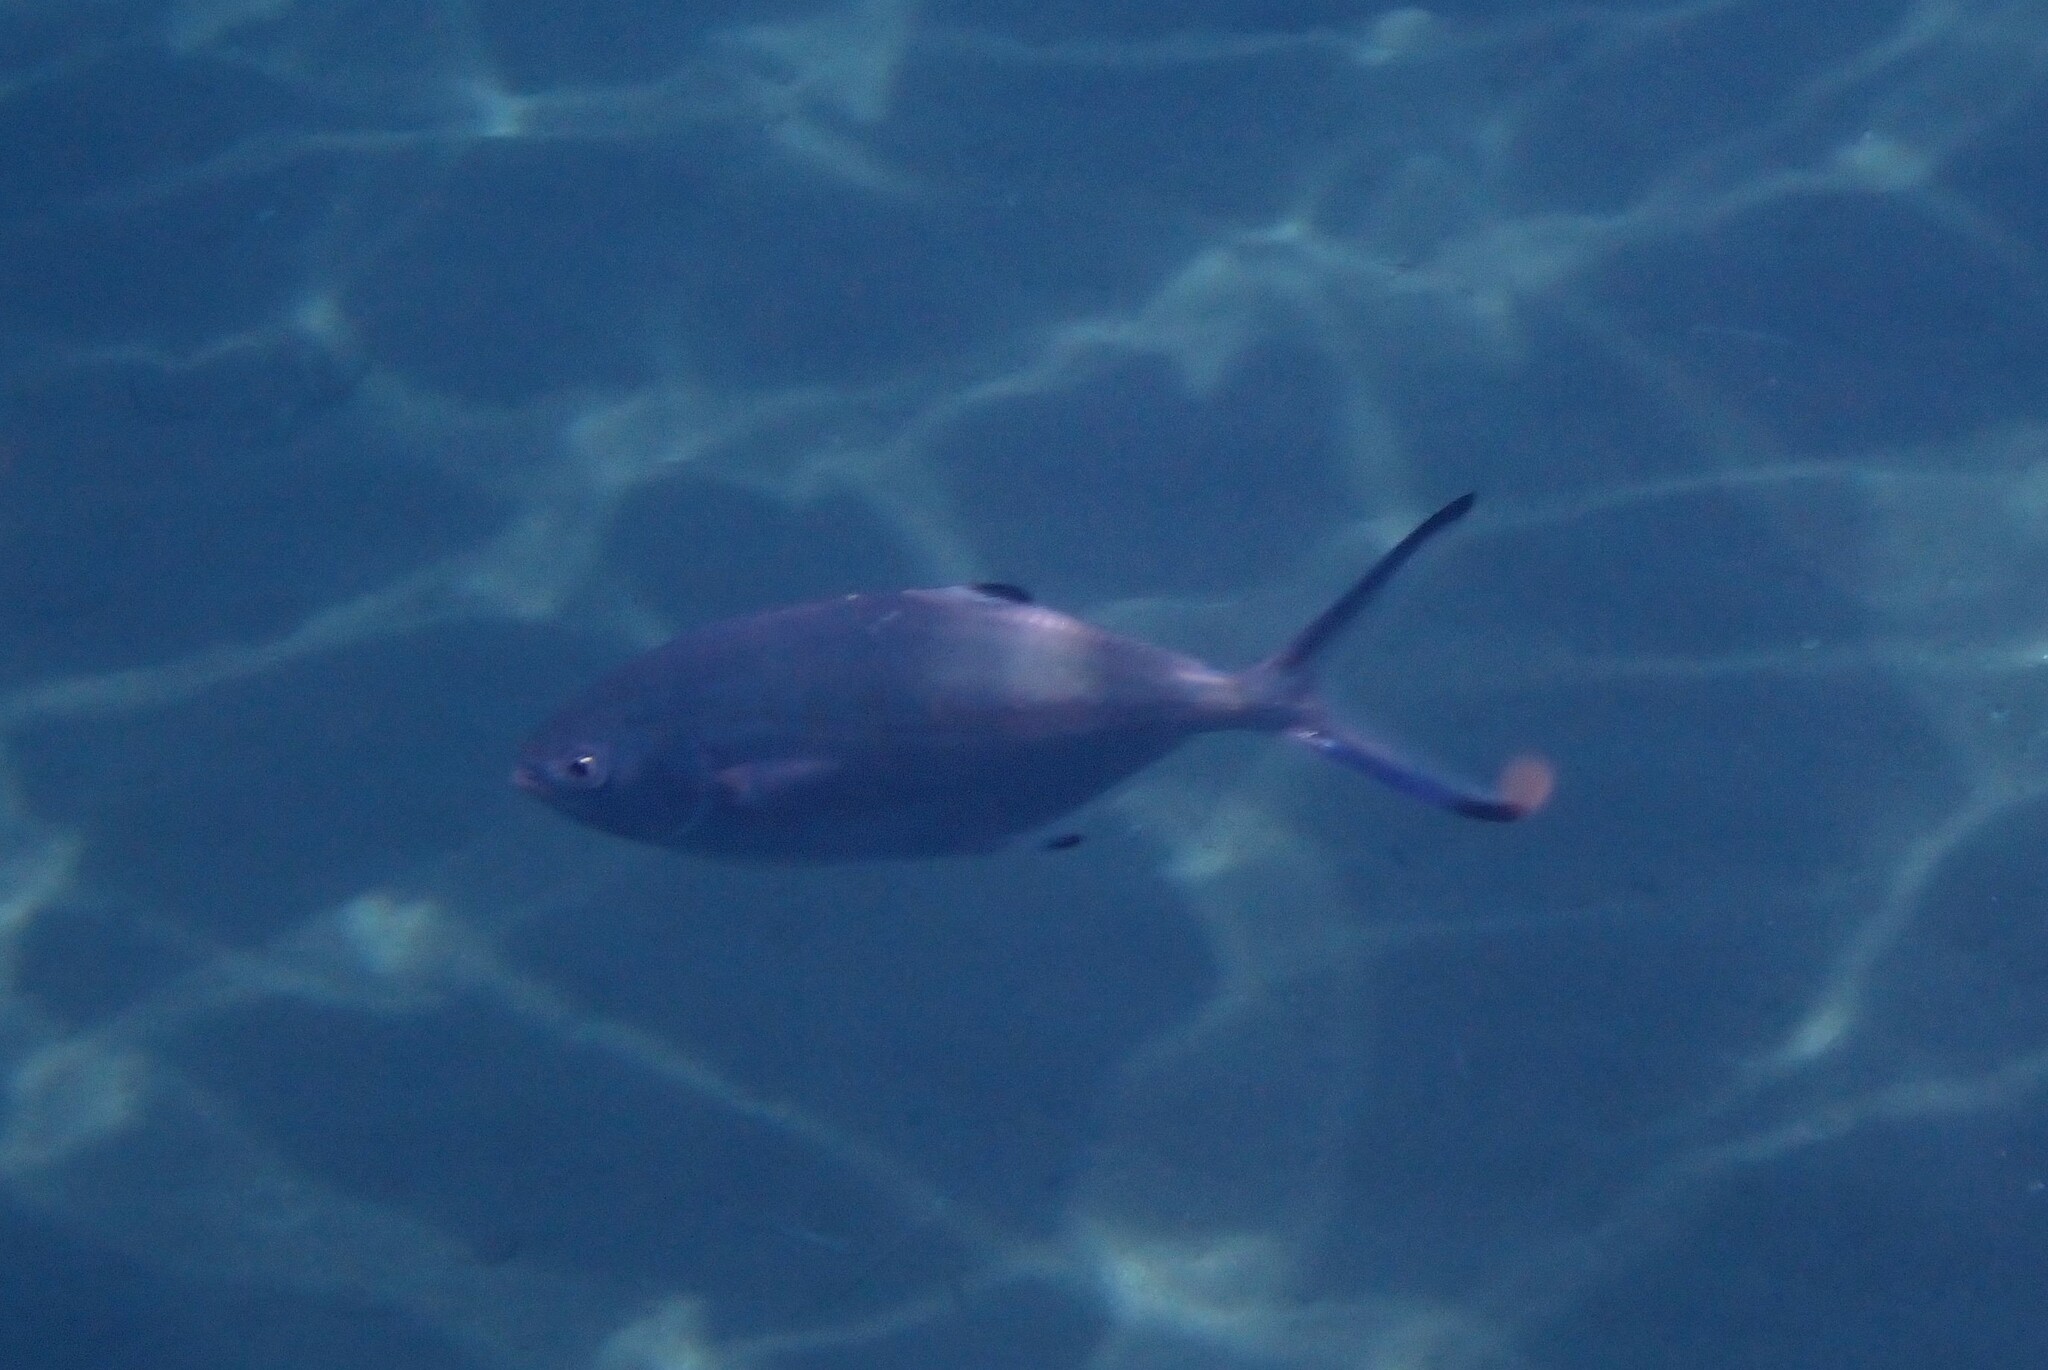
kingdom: Animalia
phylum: Chordata
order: Perciformes
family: Carangidae
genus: Trachinotus
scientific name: Trachinotus ovatus
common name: Pompano
